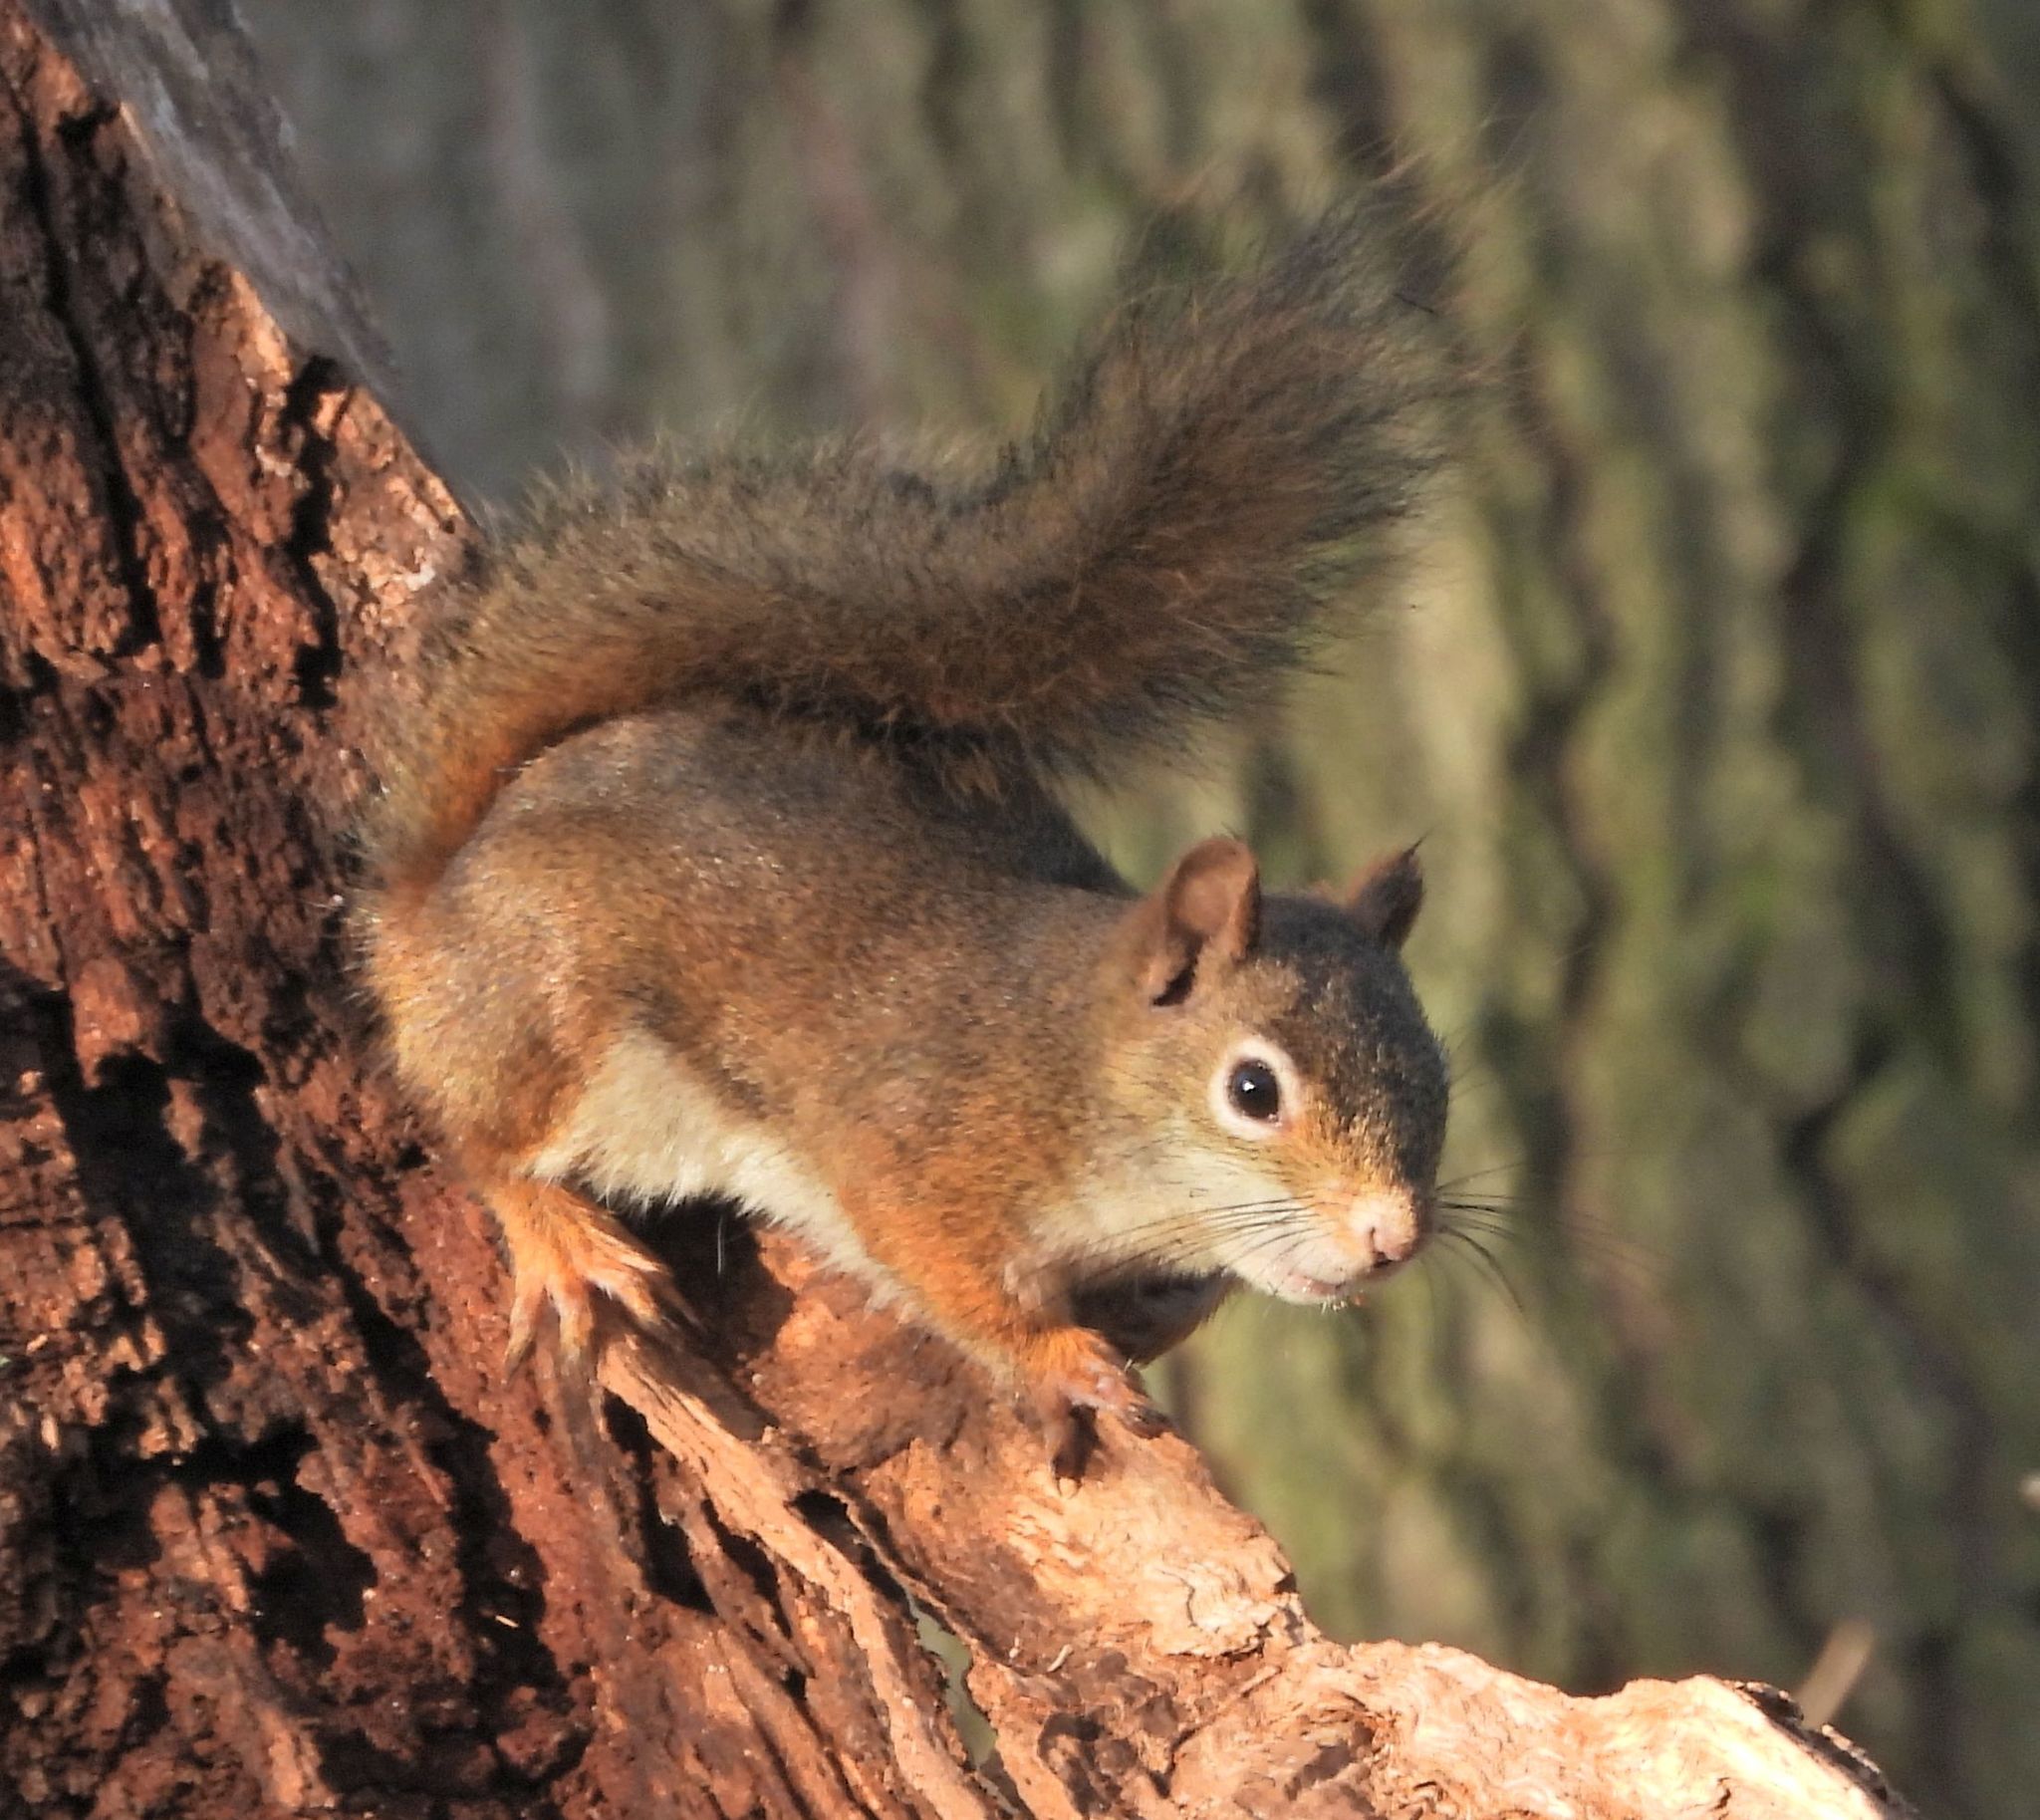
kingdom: Animalia
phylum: Chordata
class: Mammalia
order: Rodentia
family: Sciuridae
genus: Tamiasciurus
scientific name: Tamiasciurus hudsonicus
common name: Red squirrel
